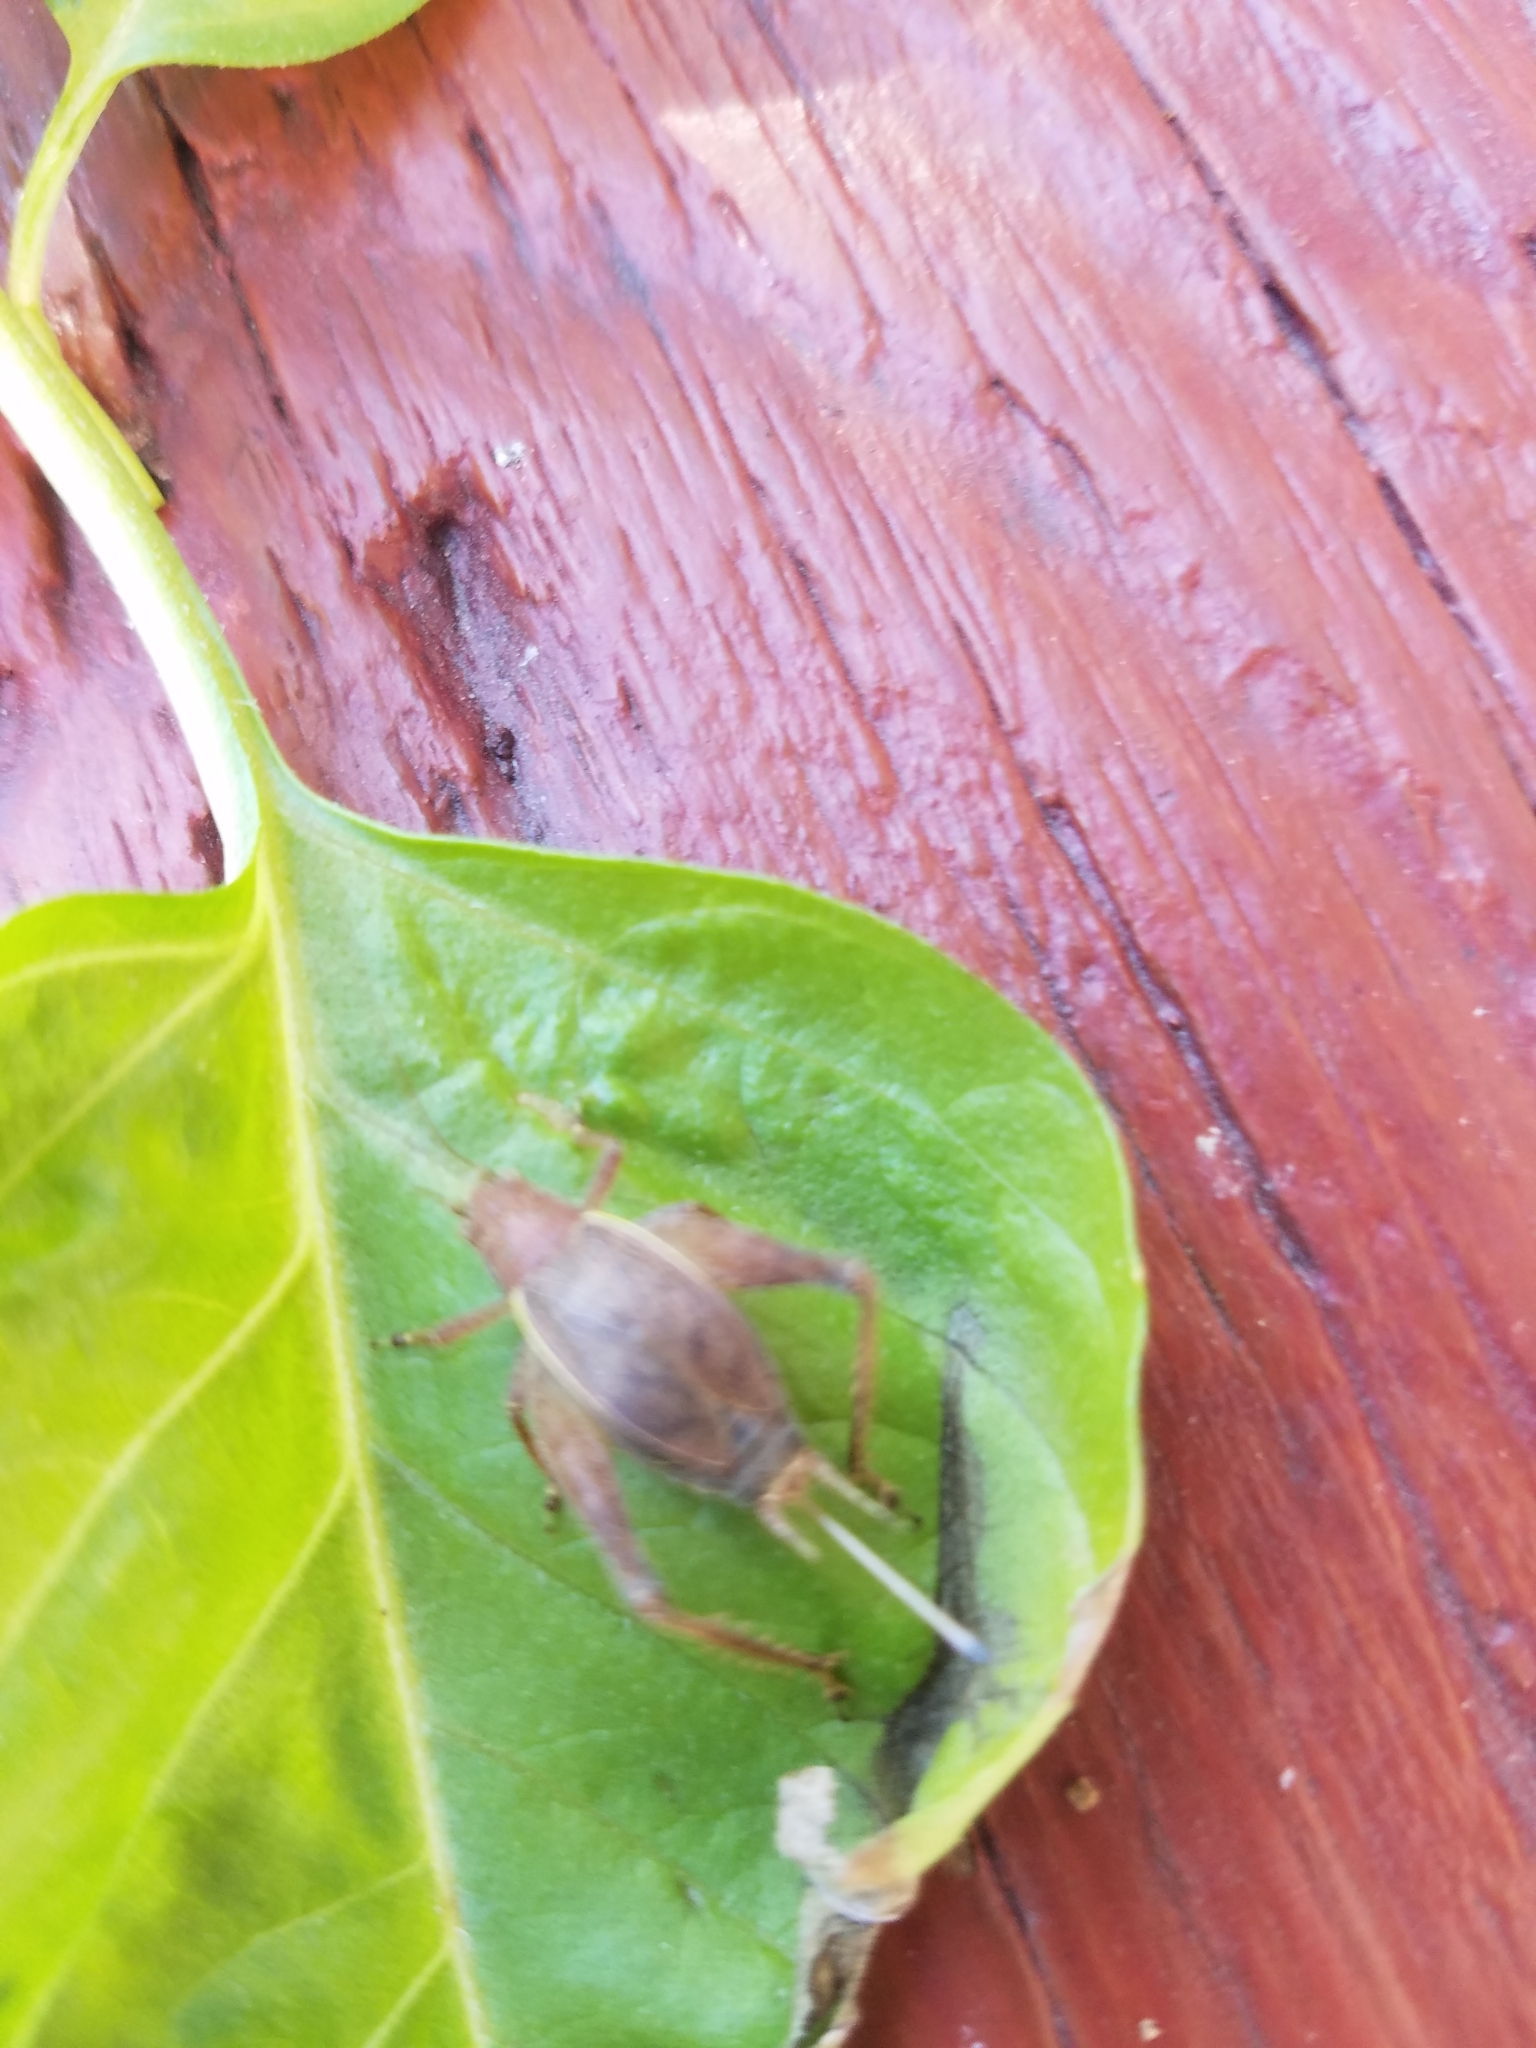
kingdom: Animalia
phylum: Arthropoda
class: Insecta
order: Orthoptera
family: Gryllidae
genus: Hapithus
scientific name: Hapithus agitator
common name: Restless bush cricket
